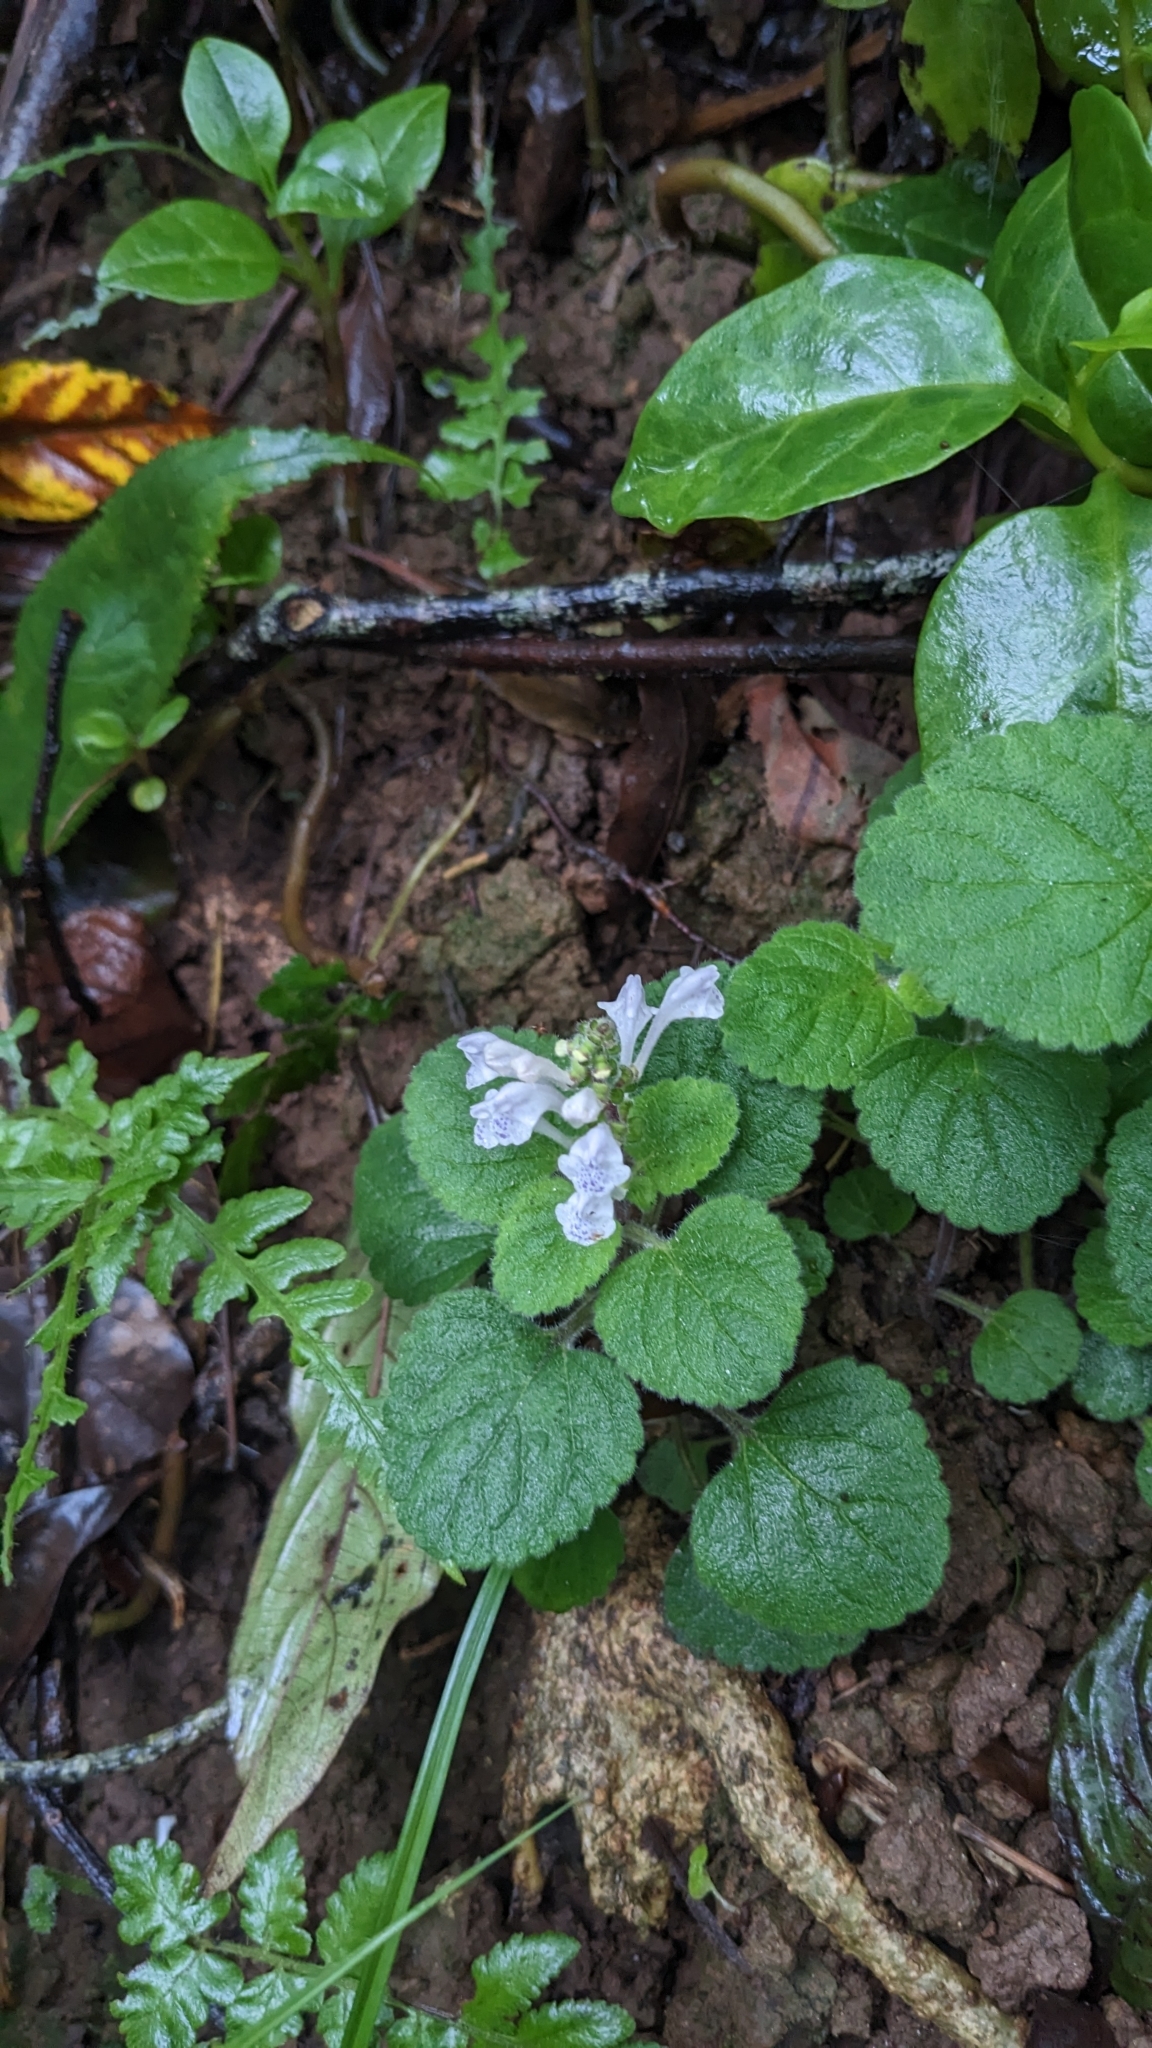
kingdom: Plantae
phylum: Tracheophyta
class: Magnoliopsida
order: Lamiales
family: Lamiaceae
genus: Scutellaria
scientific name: Scutellaria indica
